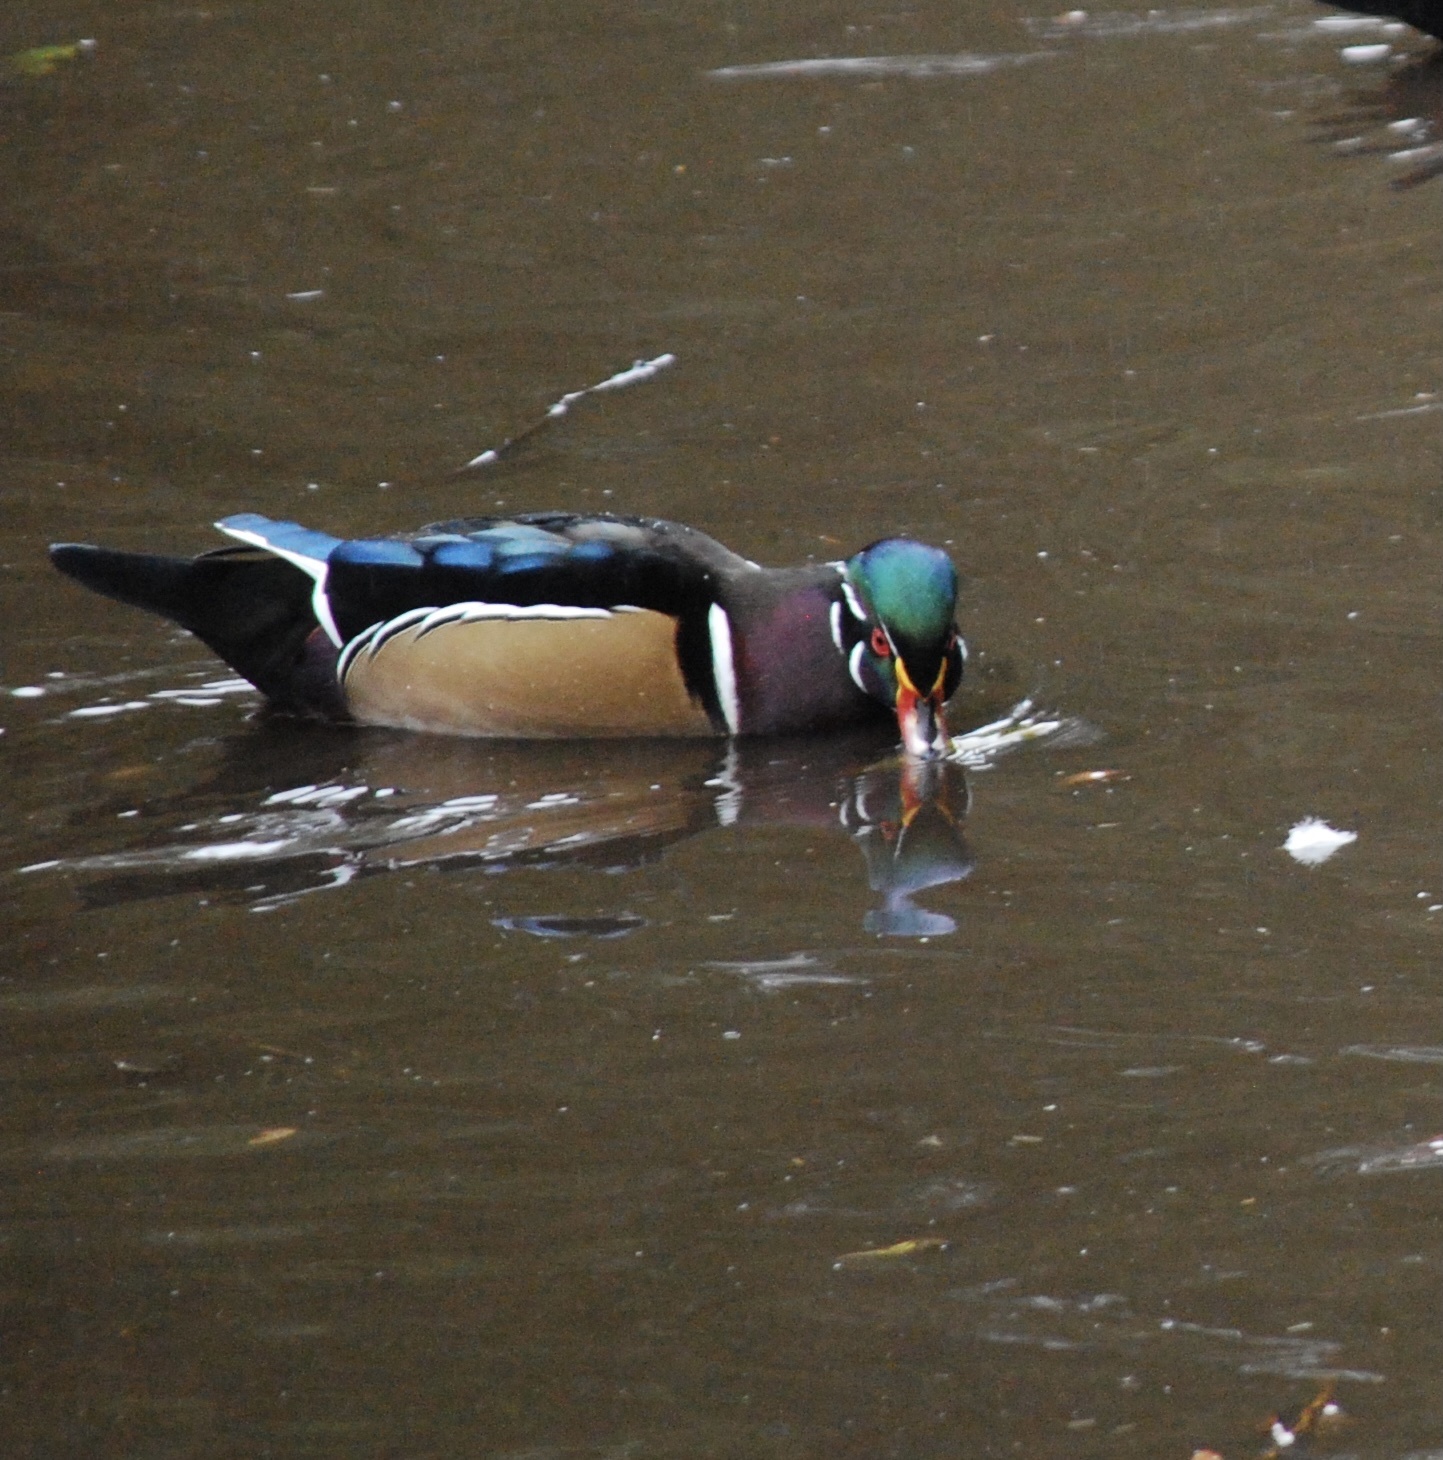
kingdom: Animalia
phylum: Chordata
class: Aves
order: Anseriformes
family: Anatidae
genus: Aix
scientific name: Aix sponsa
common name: Wood duck
